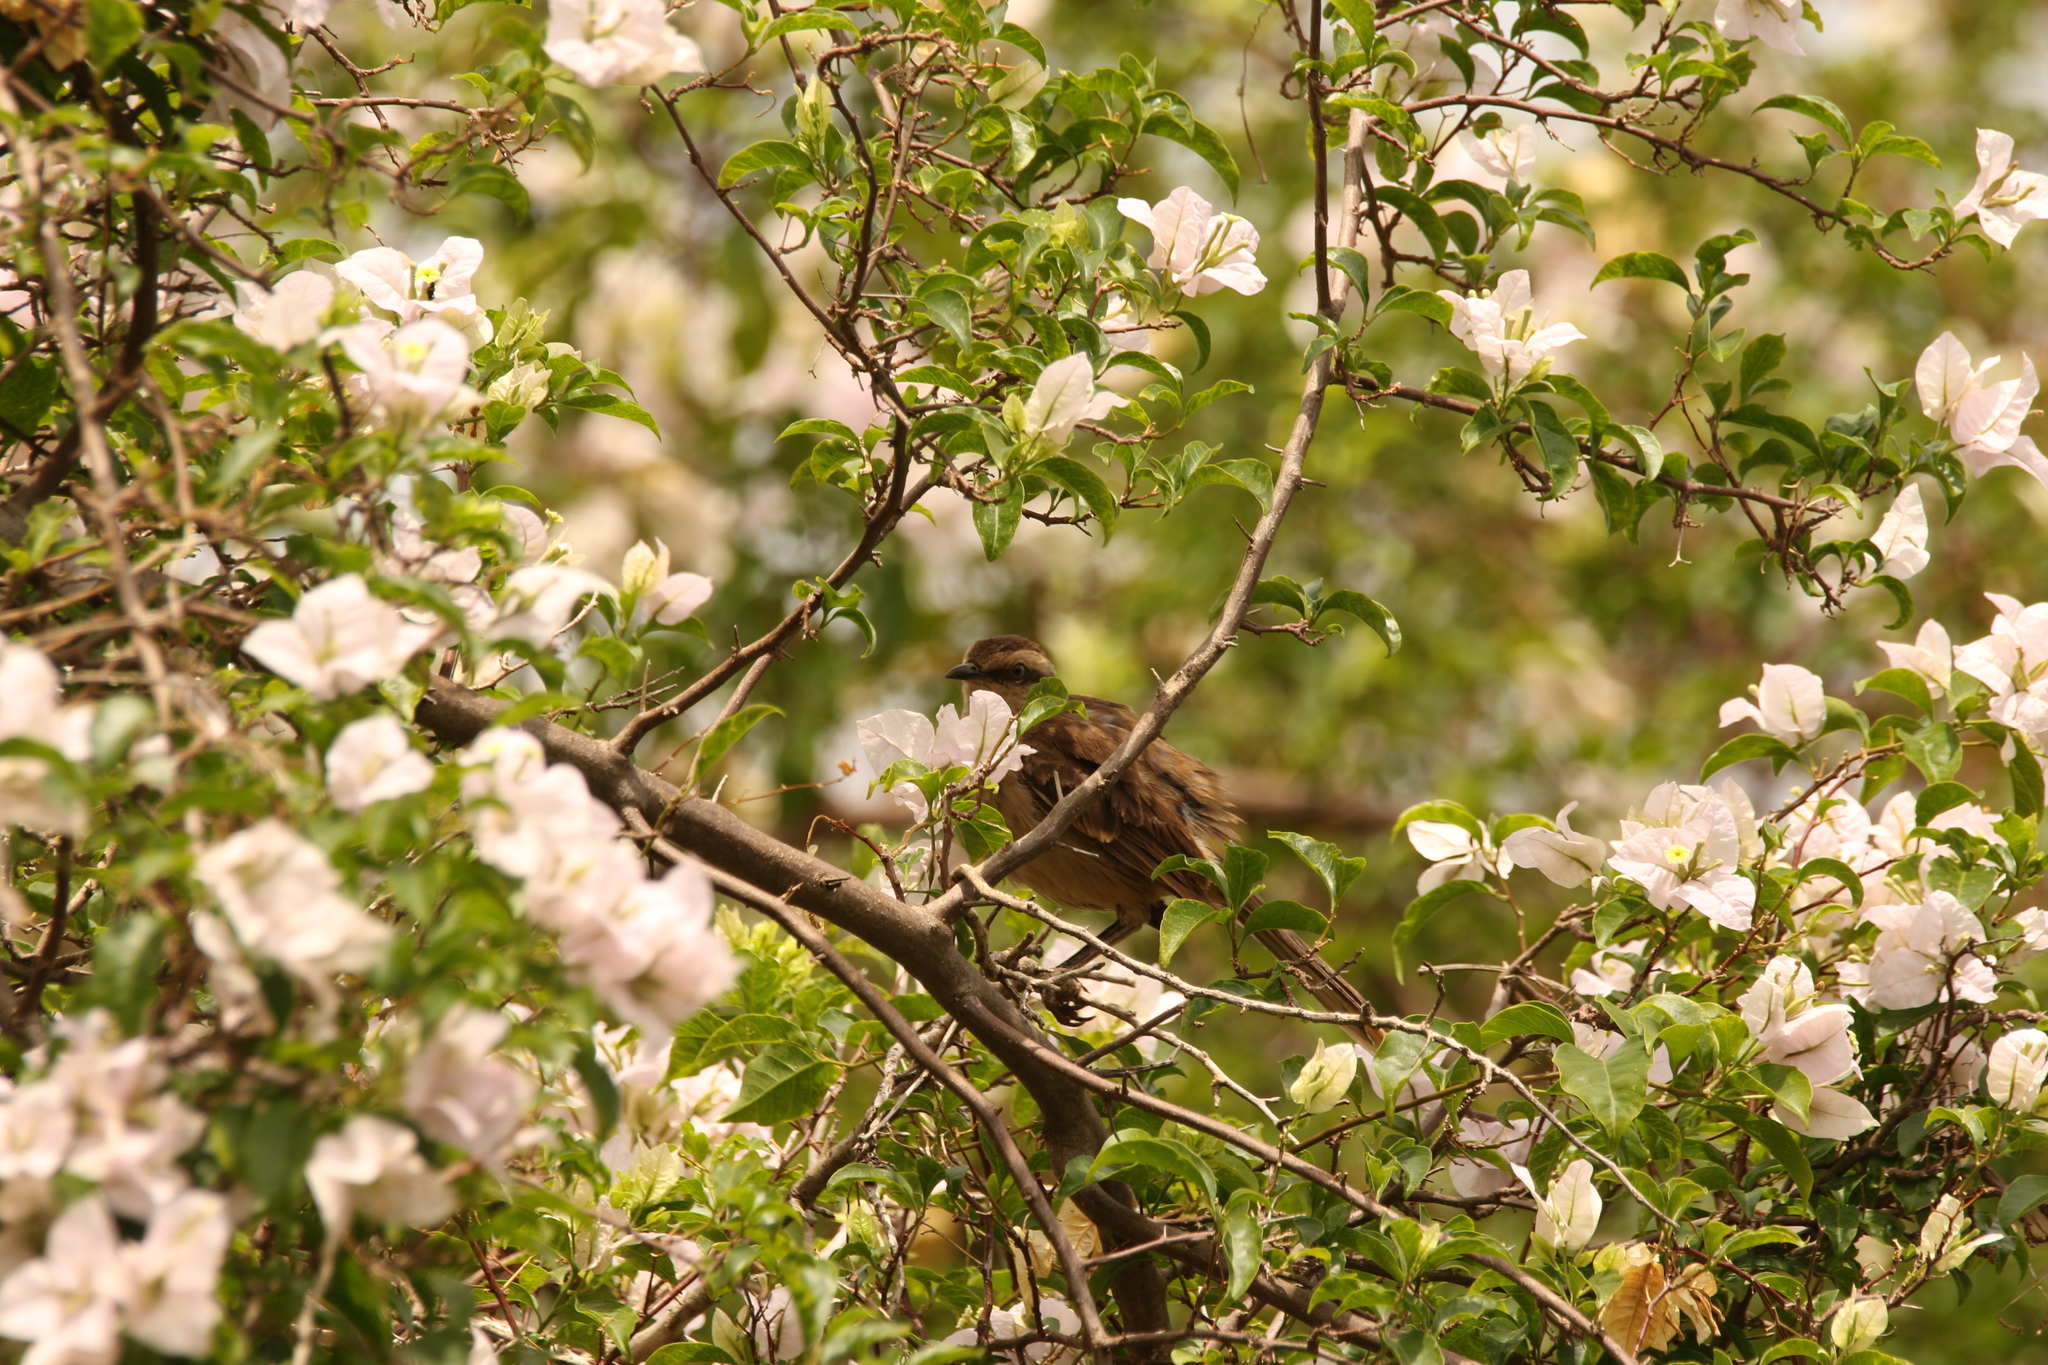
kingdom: Animalia
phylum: Chordata
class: Aves
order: Passeriformes
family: Mimidae
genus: Mimus
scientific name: Mimus saturninus
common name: Chalk-browed mockingbird
